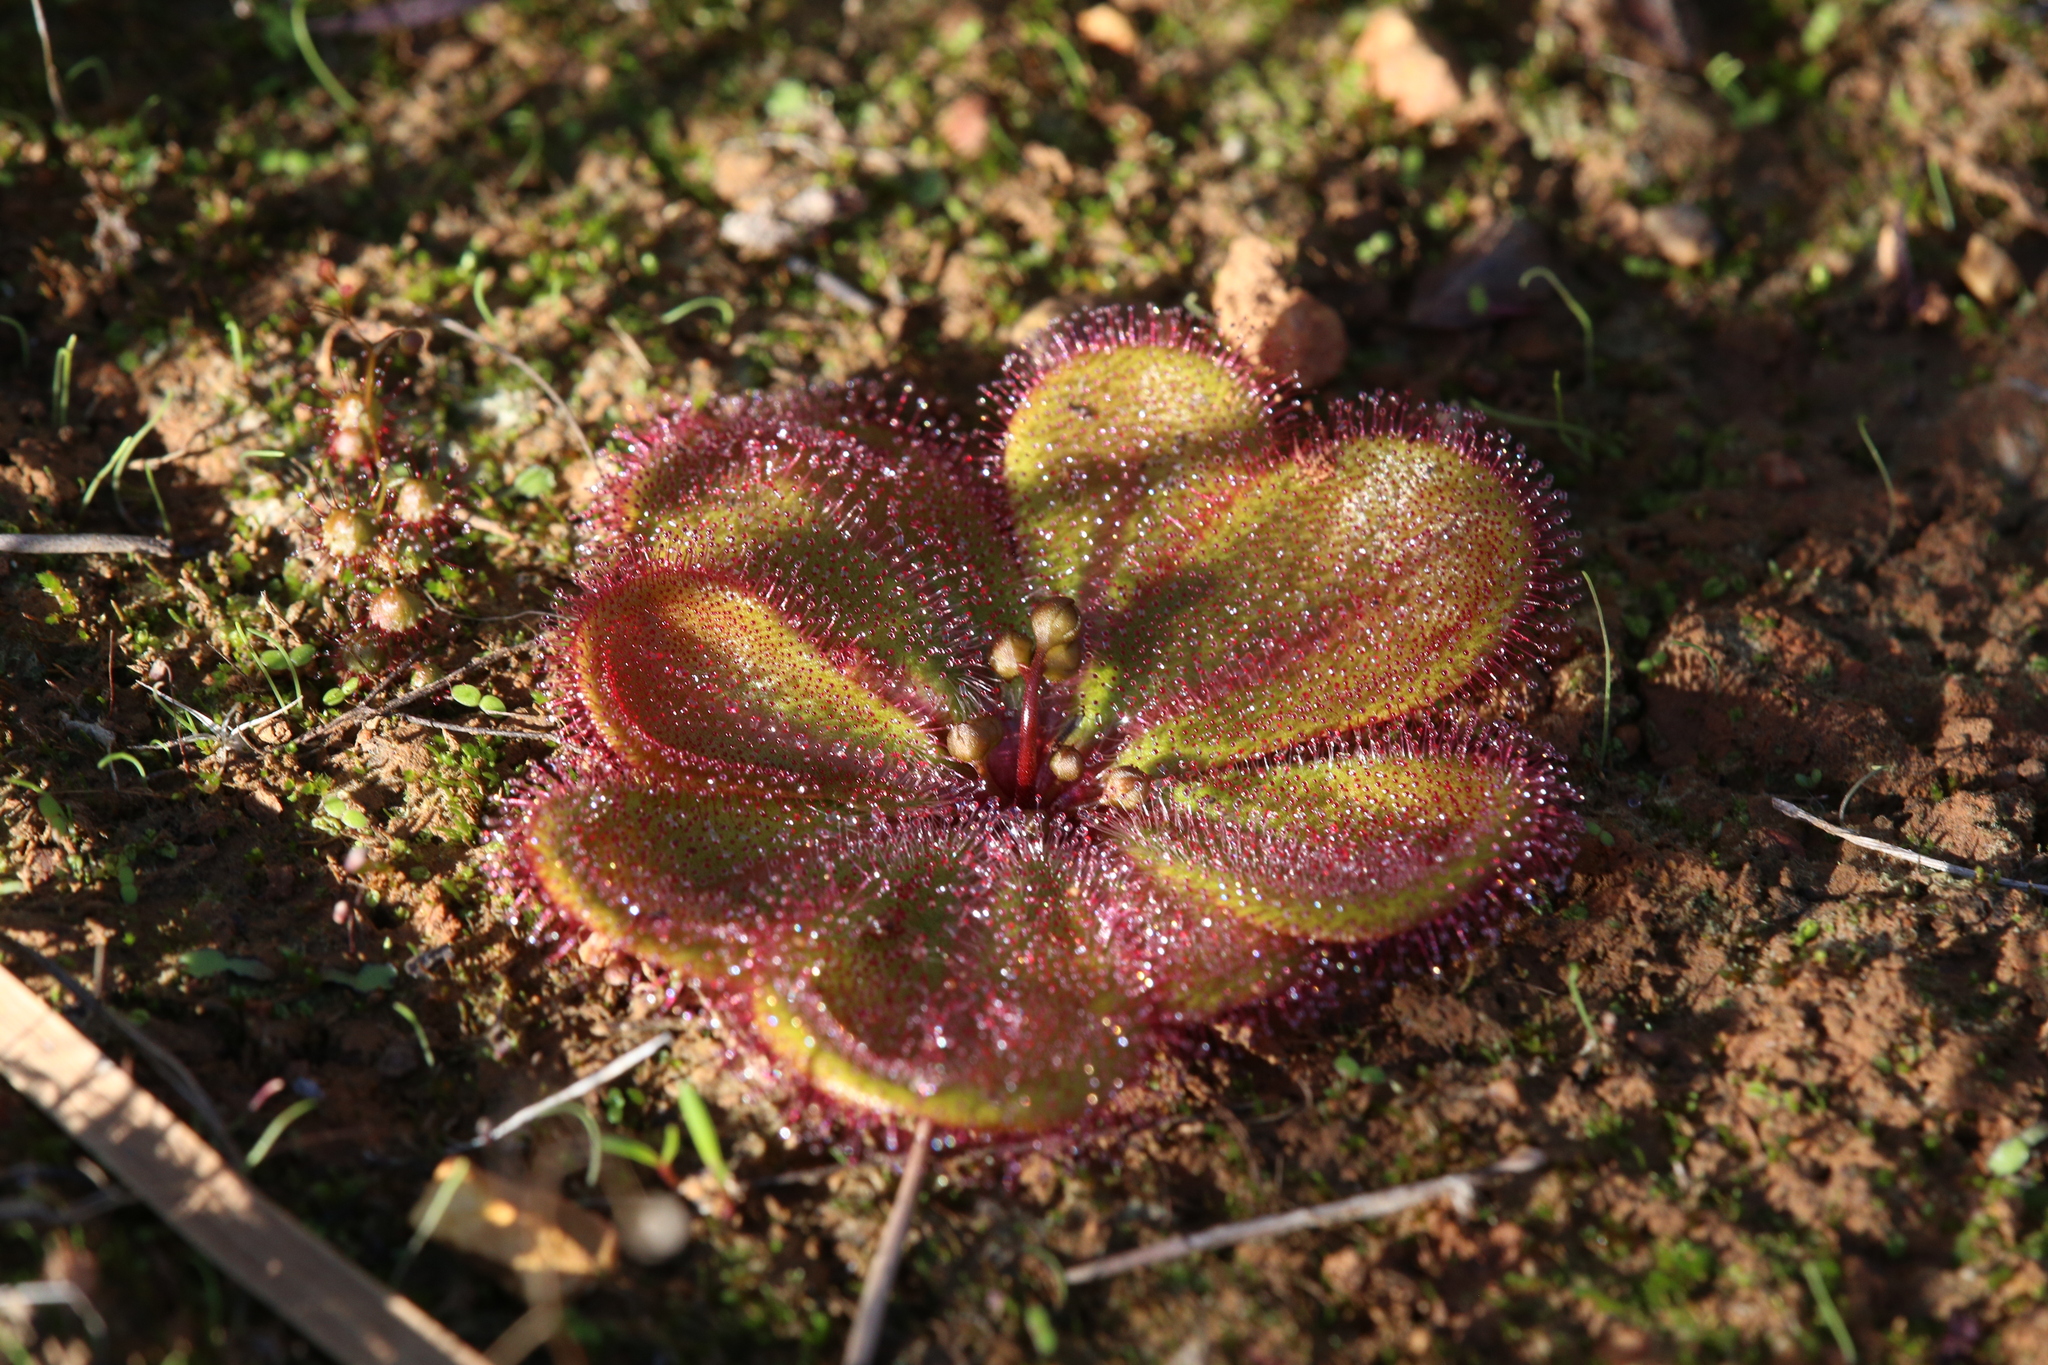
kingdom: Plantae
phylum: Tracheophyta
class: Magnoliopsida
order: Caryophyllales
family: Droseraceae
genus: Drosera
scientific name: Drosera macrophylla
